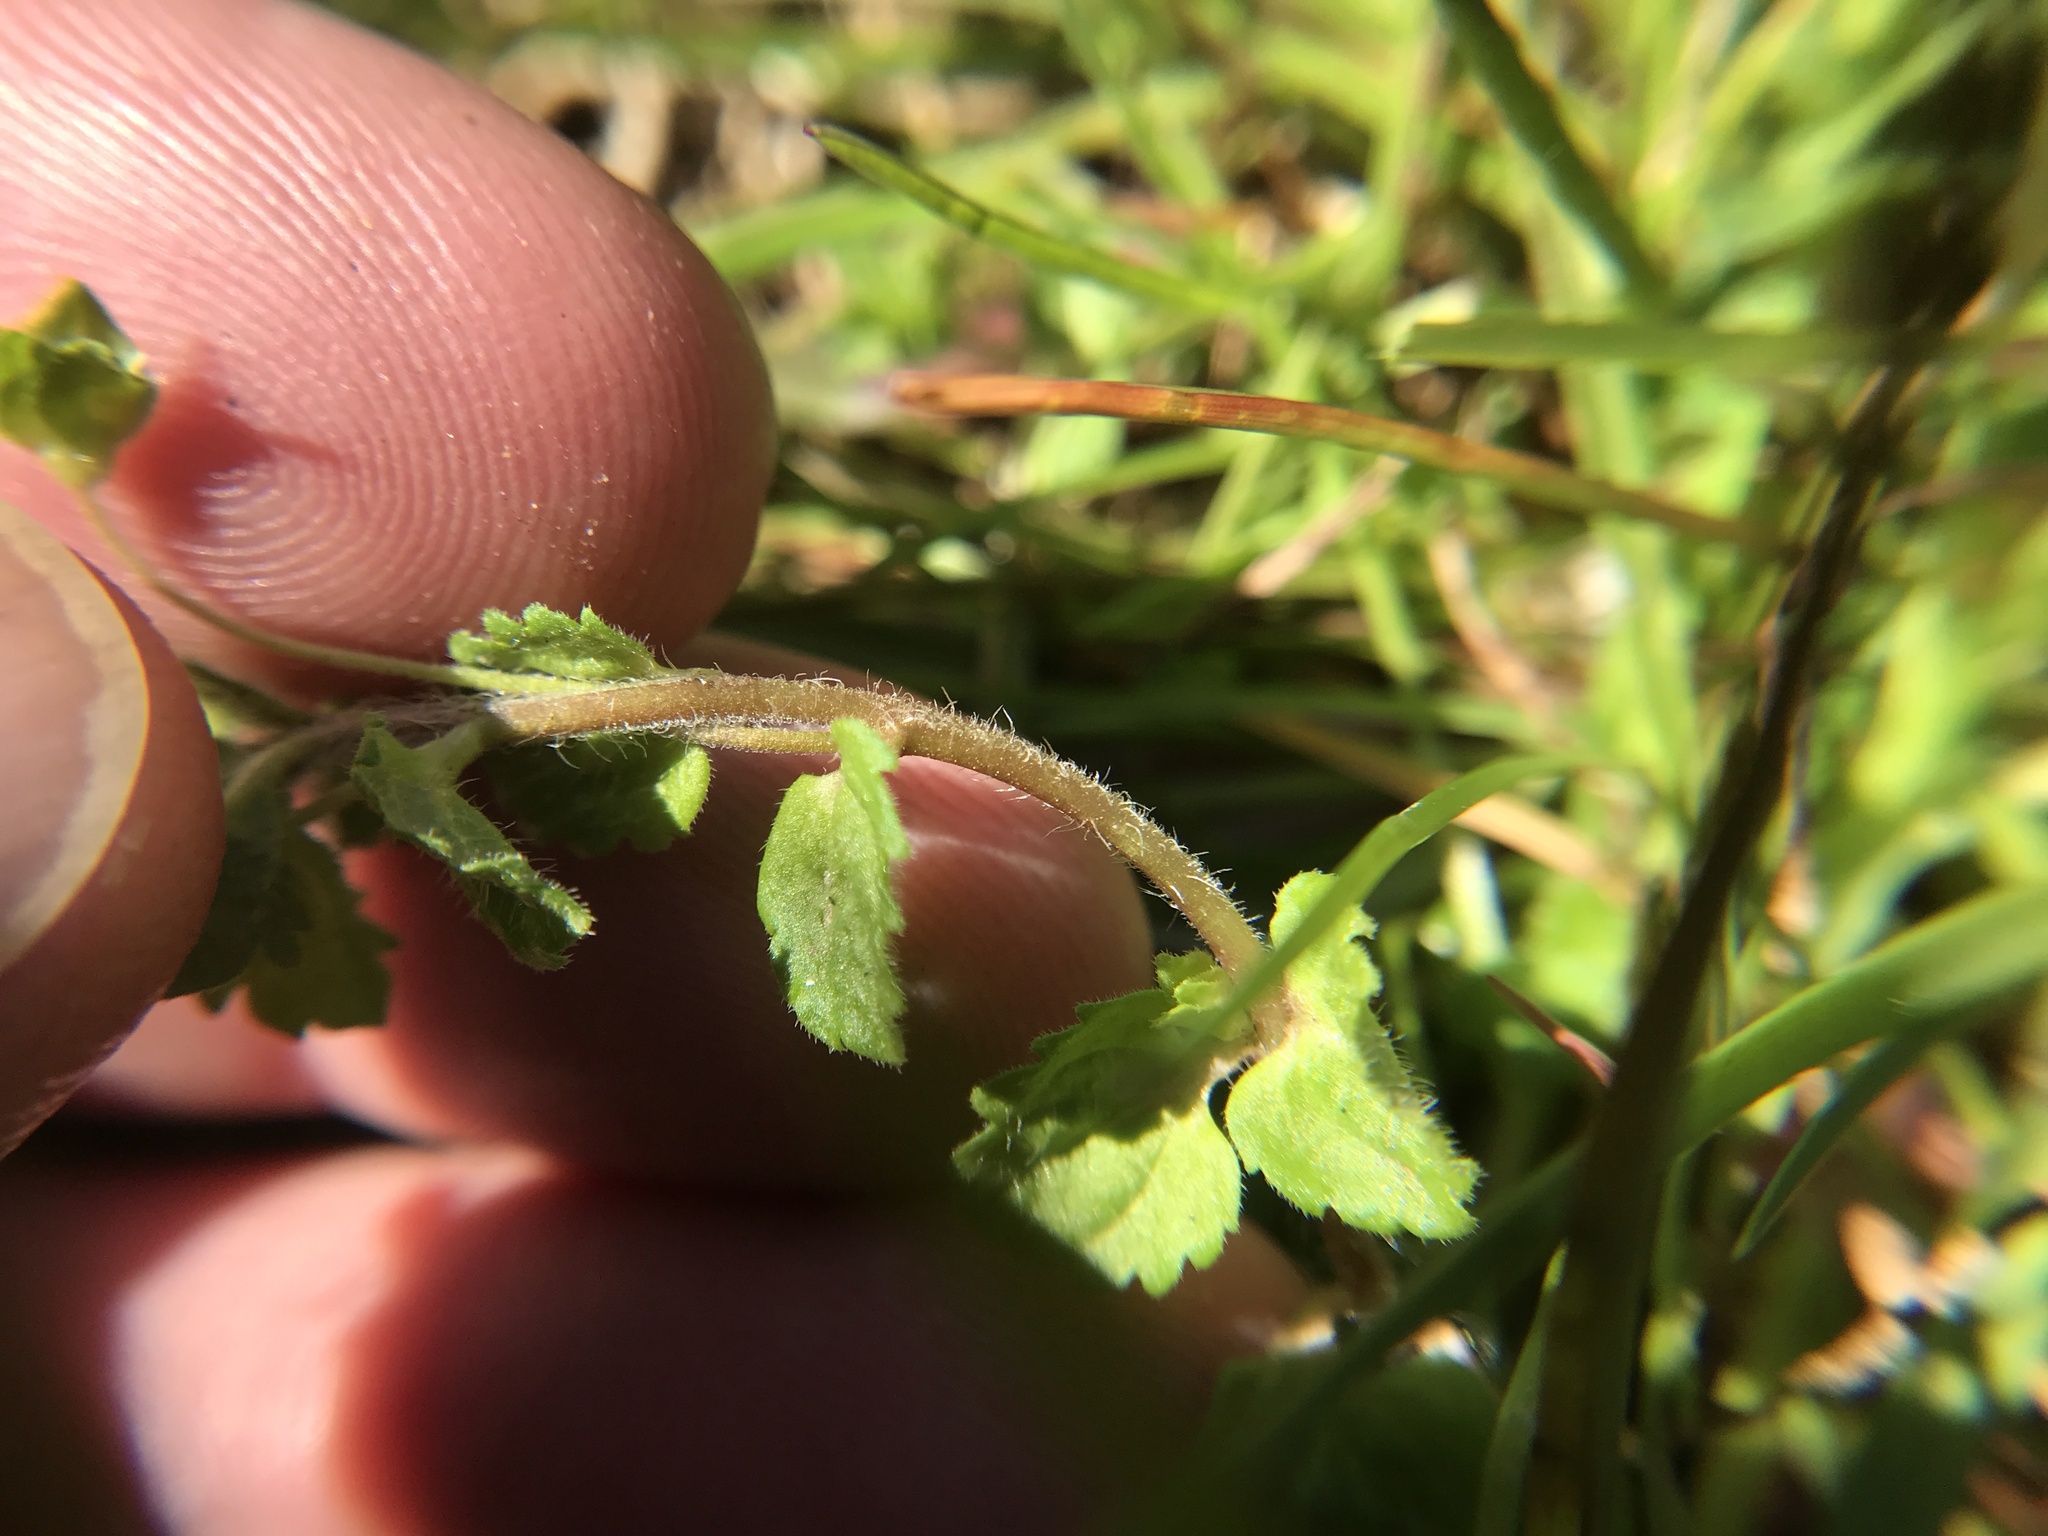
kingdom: Plantae
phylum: Tracheophyta
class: Magnoliopsida
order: Lamiales
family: Plantaginaceae
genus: Veronica
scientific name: Veronica persica
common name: Common field-speedwell
